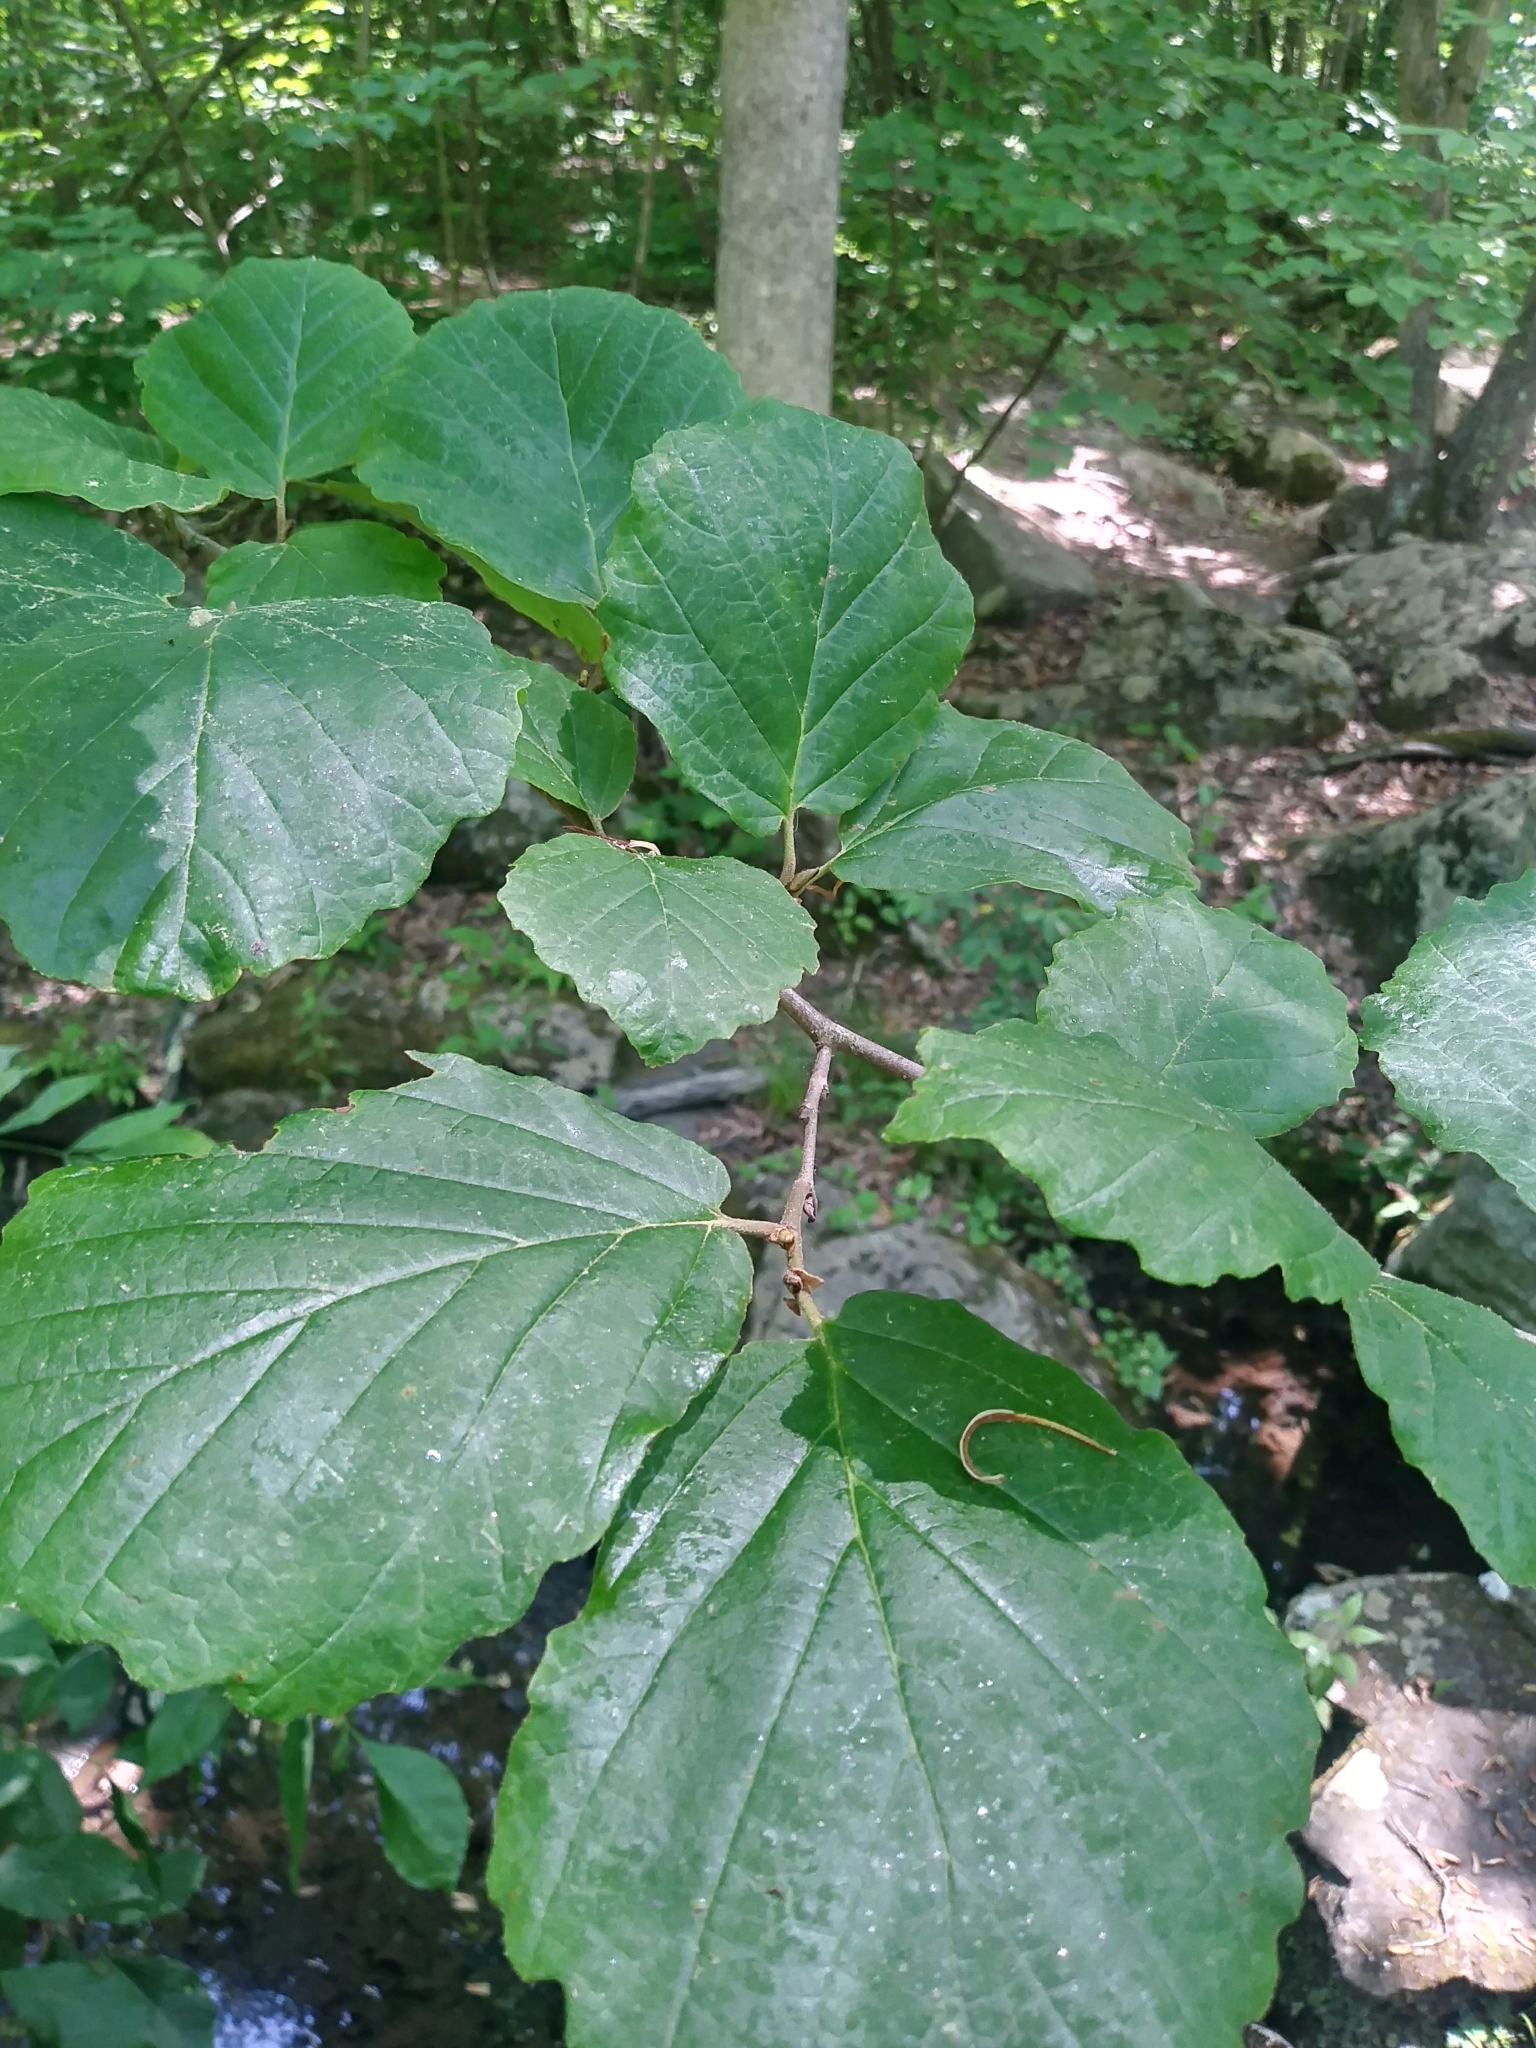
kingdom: Plantae
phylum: Tracheophyta
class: Magnoliopsida
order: Saxifragales
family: Hamamelidaceae
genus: Hamamelis
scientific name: Hamamelis virginiana
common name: Witch-hazel
